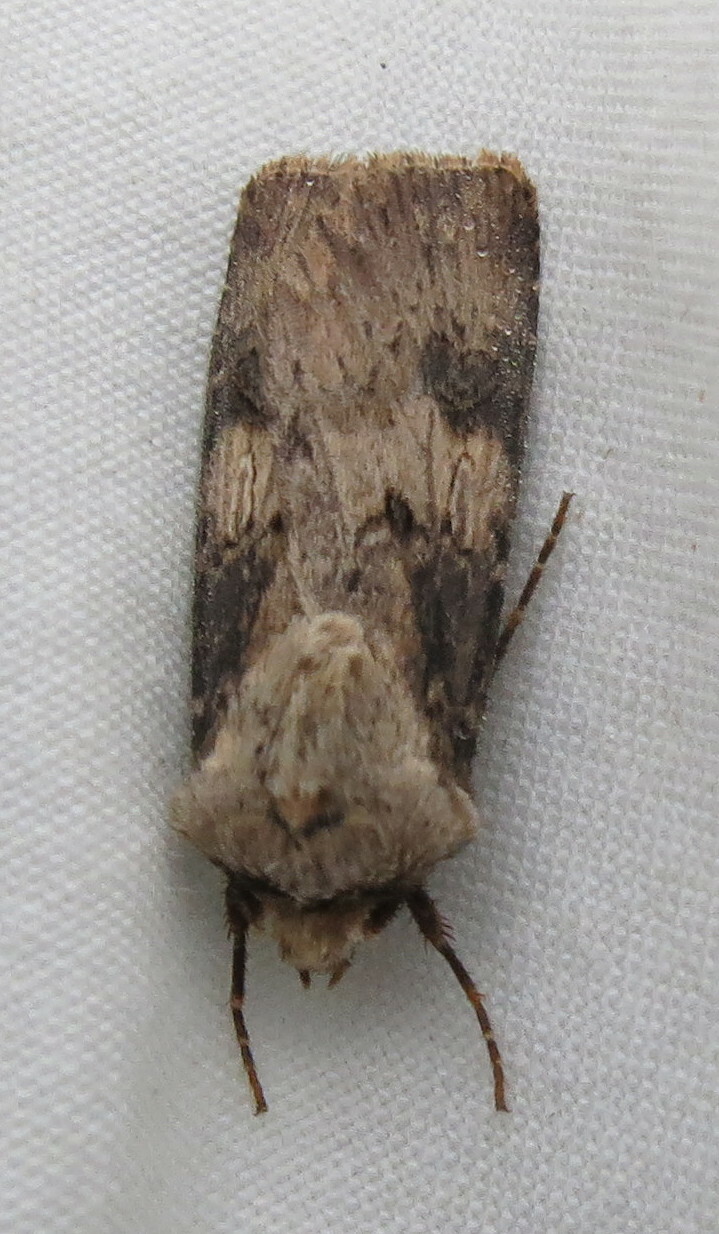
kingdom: Animalia
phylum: Arthropoda
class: Insecta
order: Lepidoptera
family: Noctuidae
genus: Agrotis
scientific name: Agrotis puta
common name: Shuttle-shaped dart
